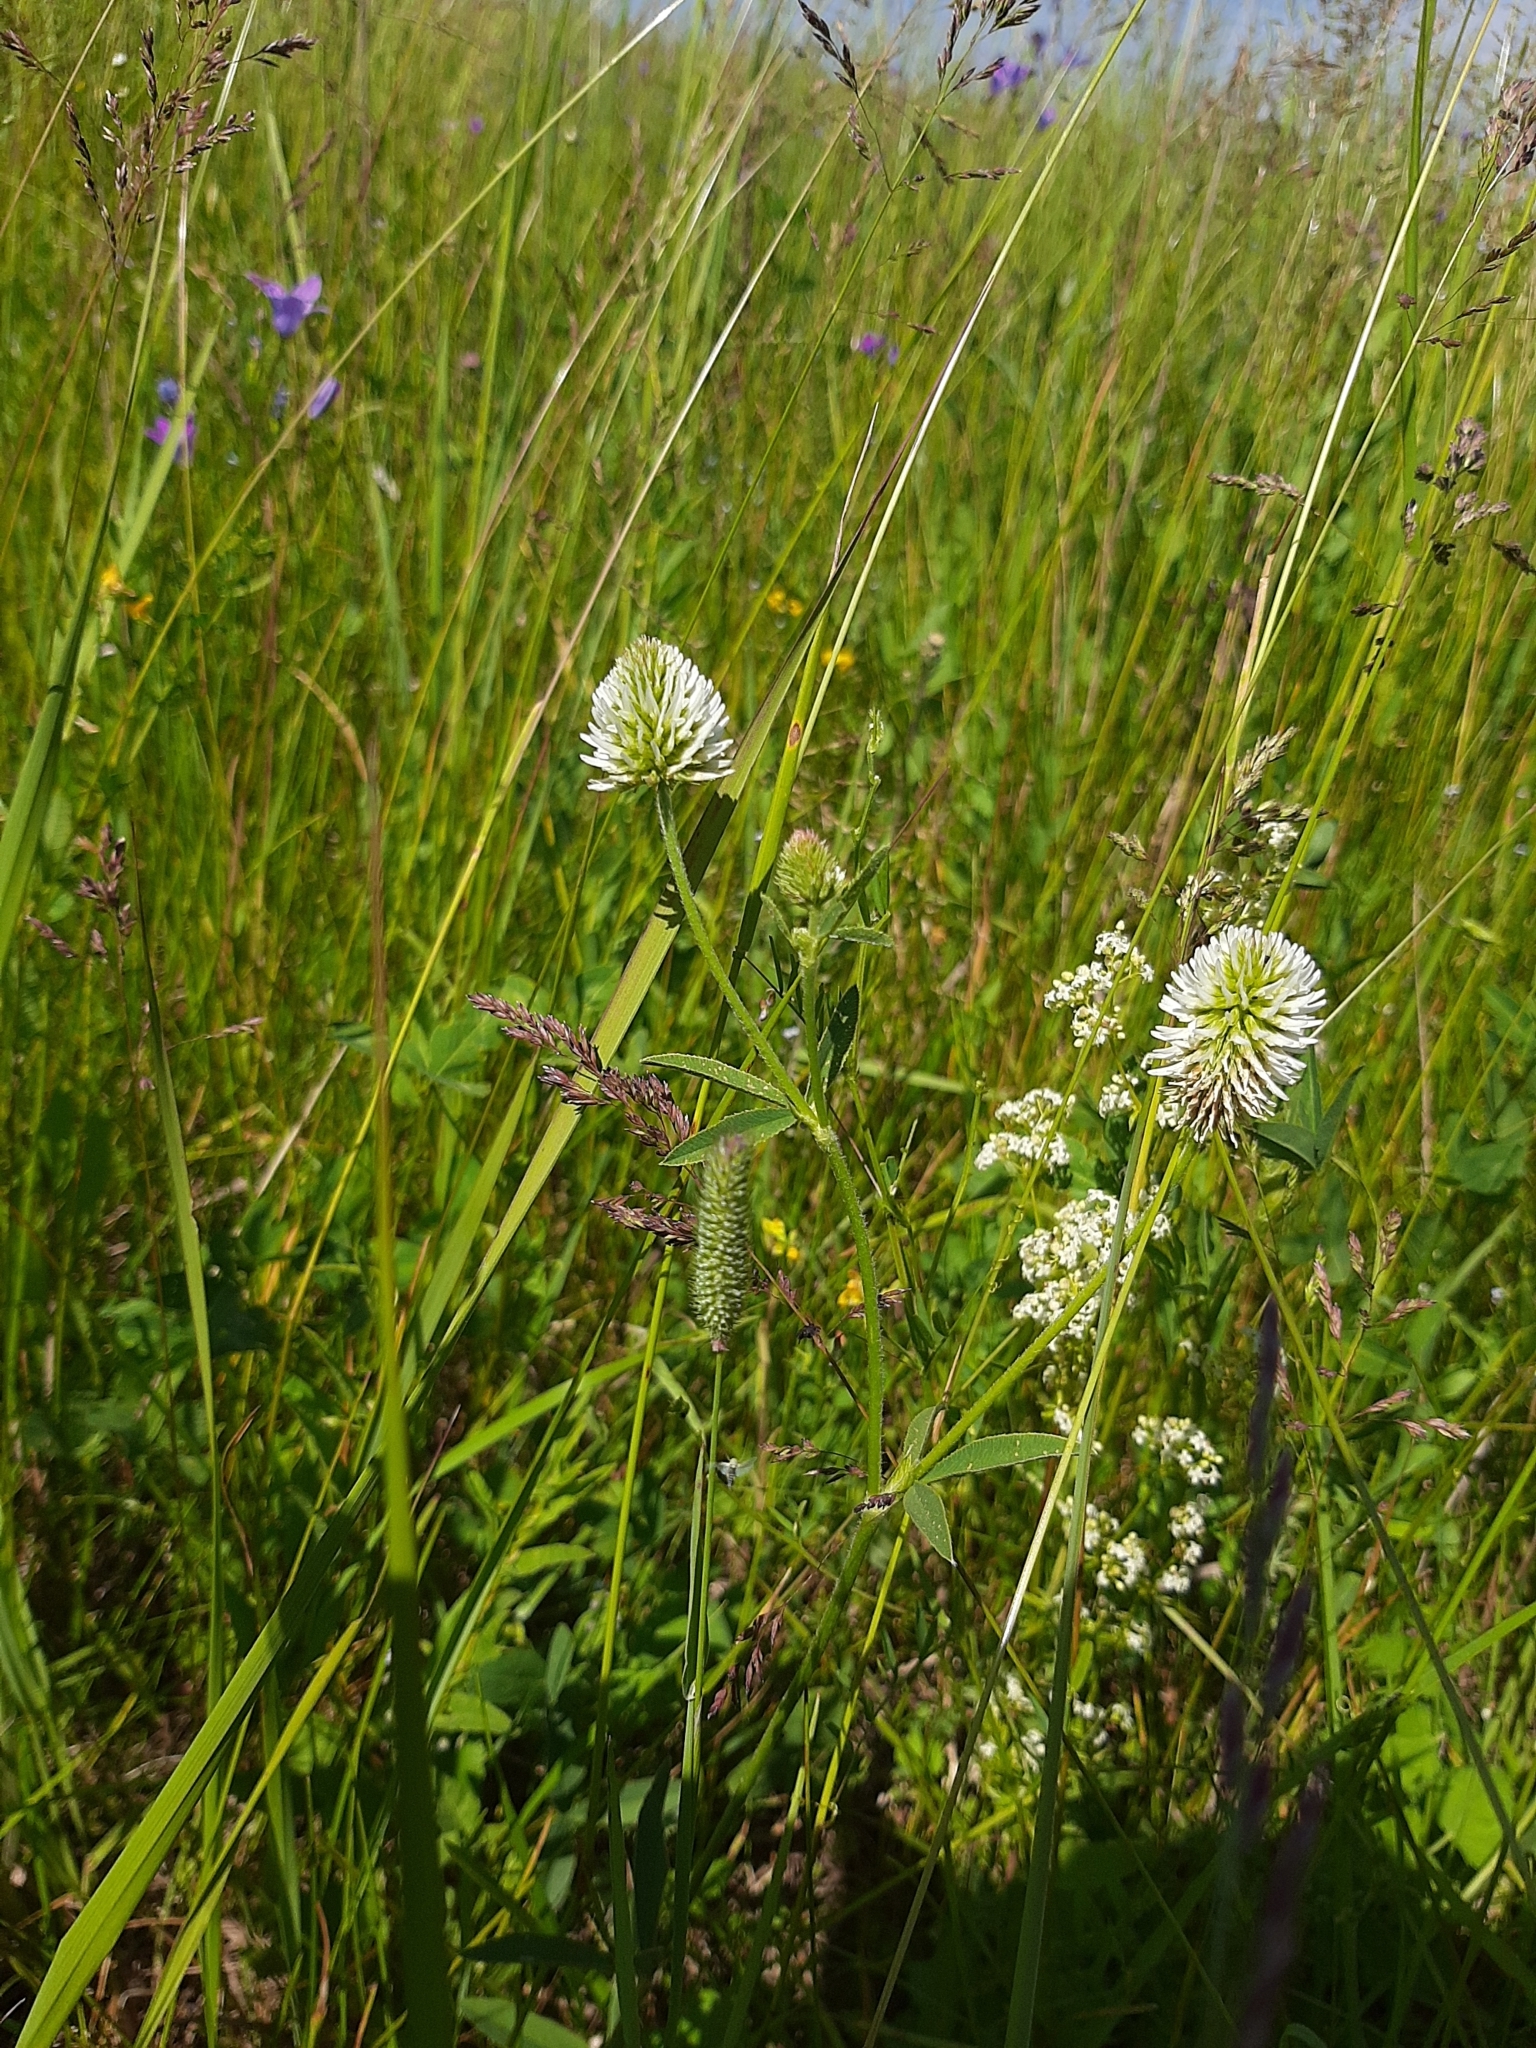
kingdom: Plantae
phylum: Tracheophyta
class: Magnoliopsida
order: Fabales
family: Fabaceae
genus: Trifolium
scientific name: Trifolium montanum
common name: Mountain clover
